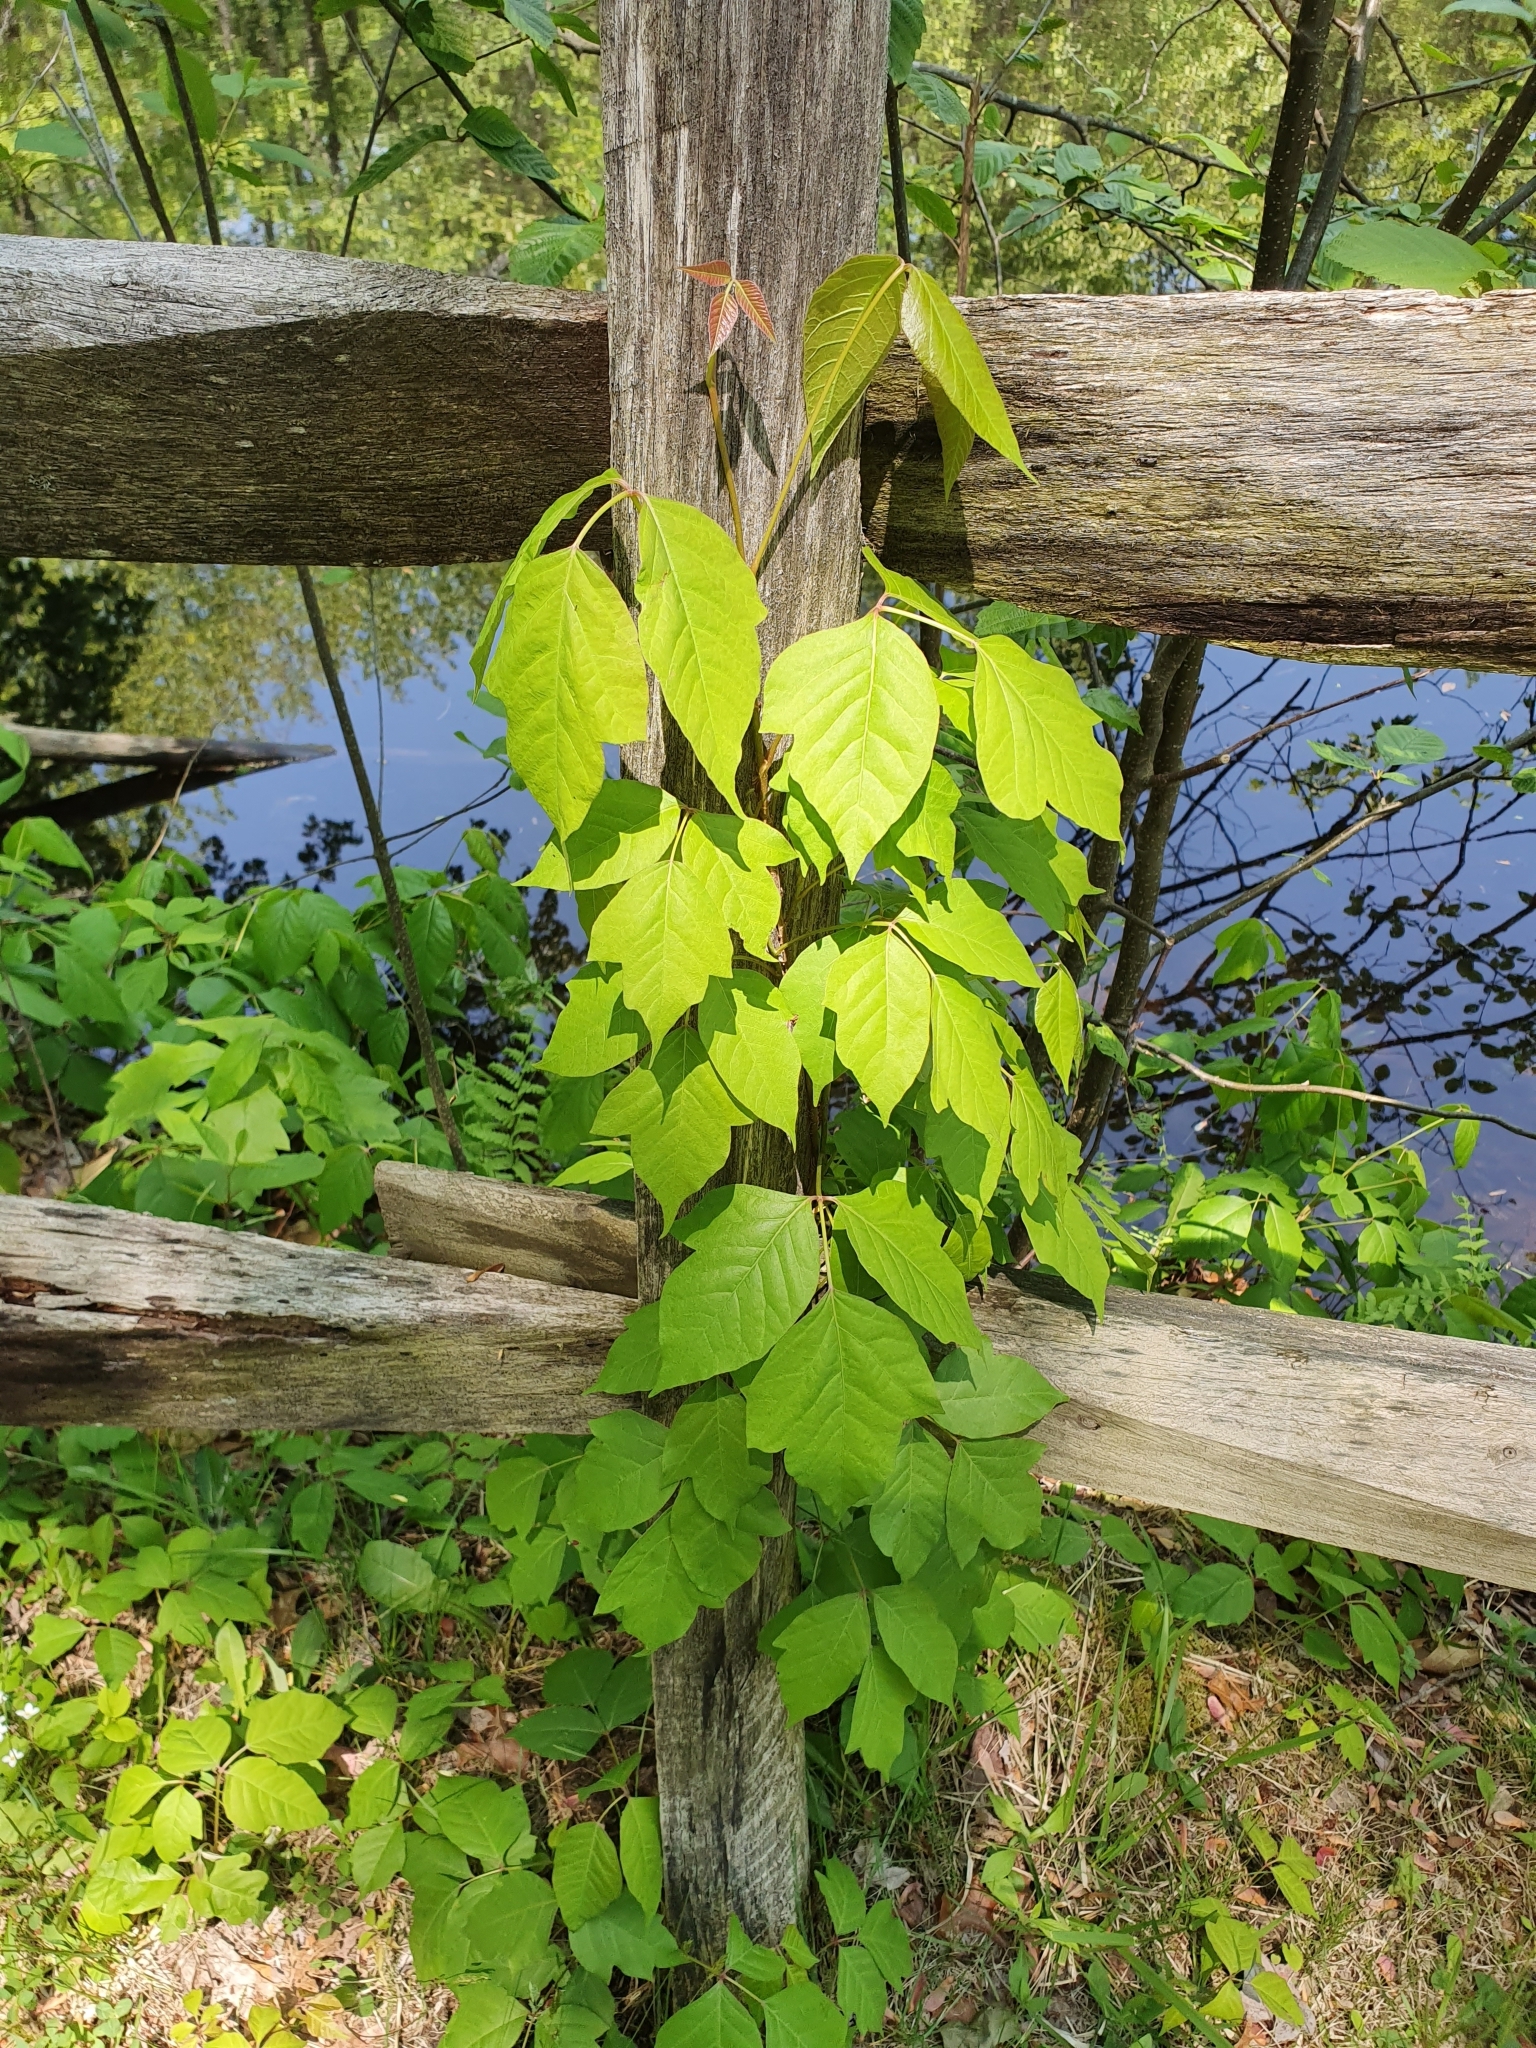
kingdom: Plantae
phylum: Tracheophyta
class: Magnoliopsida
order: Sapindales
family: Anacardiaceae
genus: Toxicodendron
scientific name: Toxicodendron radicans
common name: Poison ivy
